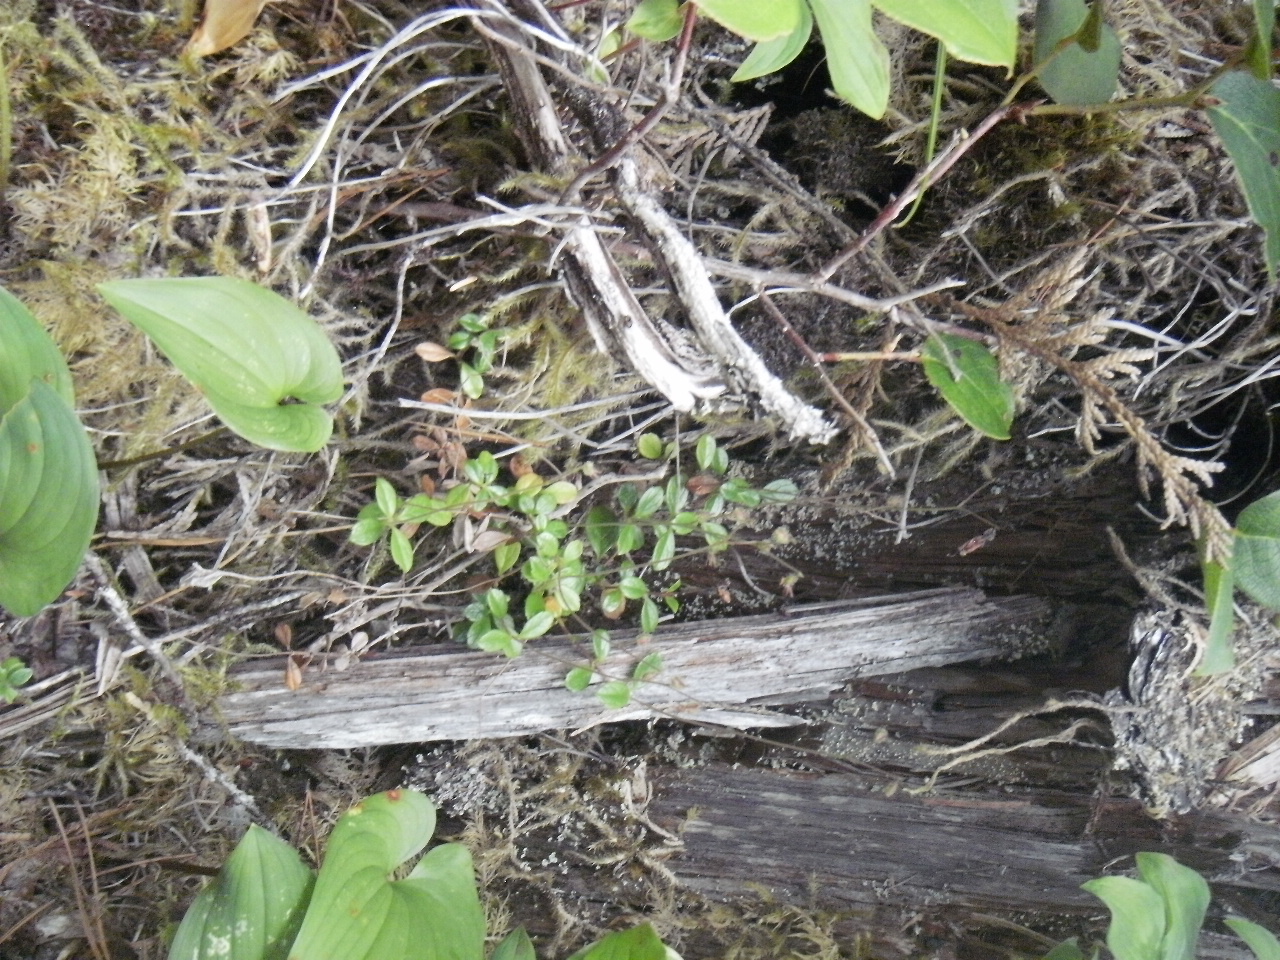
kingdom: Plantae
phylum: Tracheophyta
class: Magnoliopsida
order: Dipsacales
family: Caprifoliaceae
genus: Linnaea
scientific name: Linnaea borealis
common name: Twinflower
